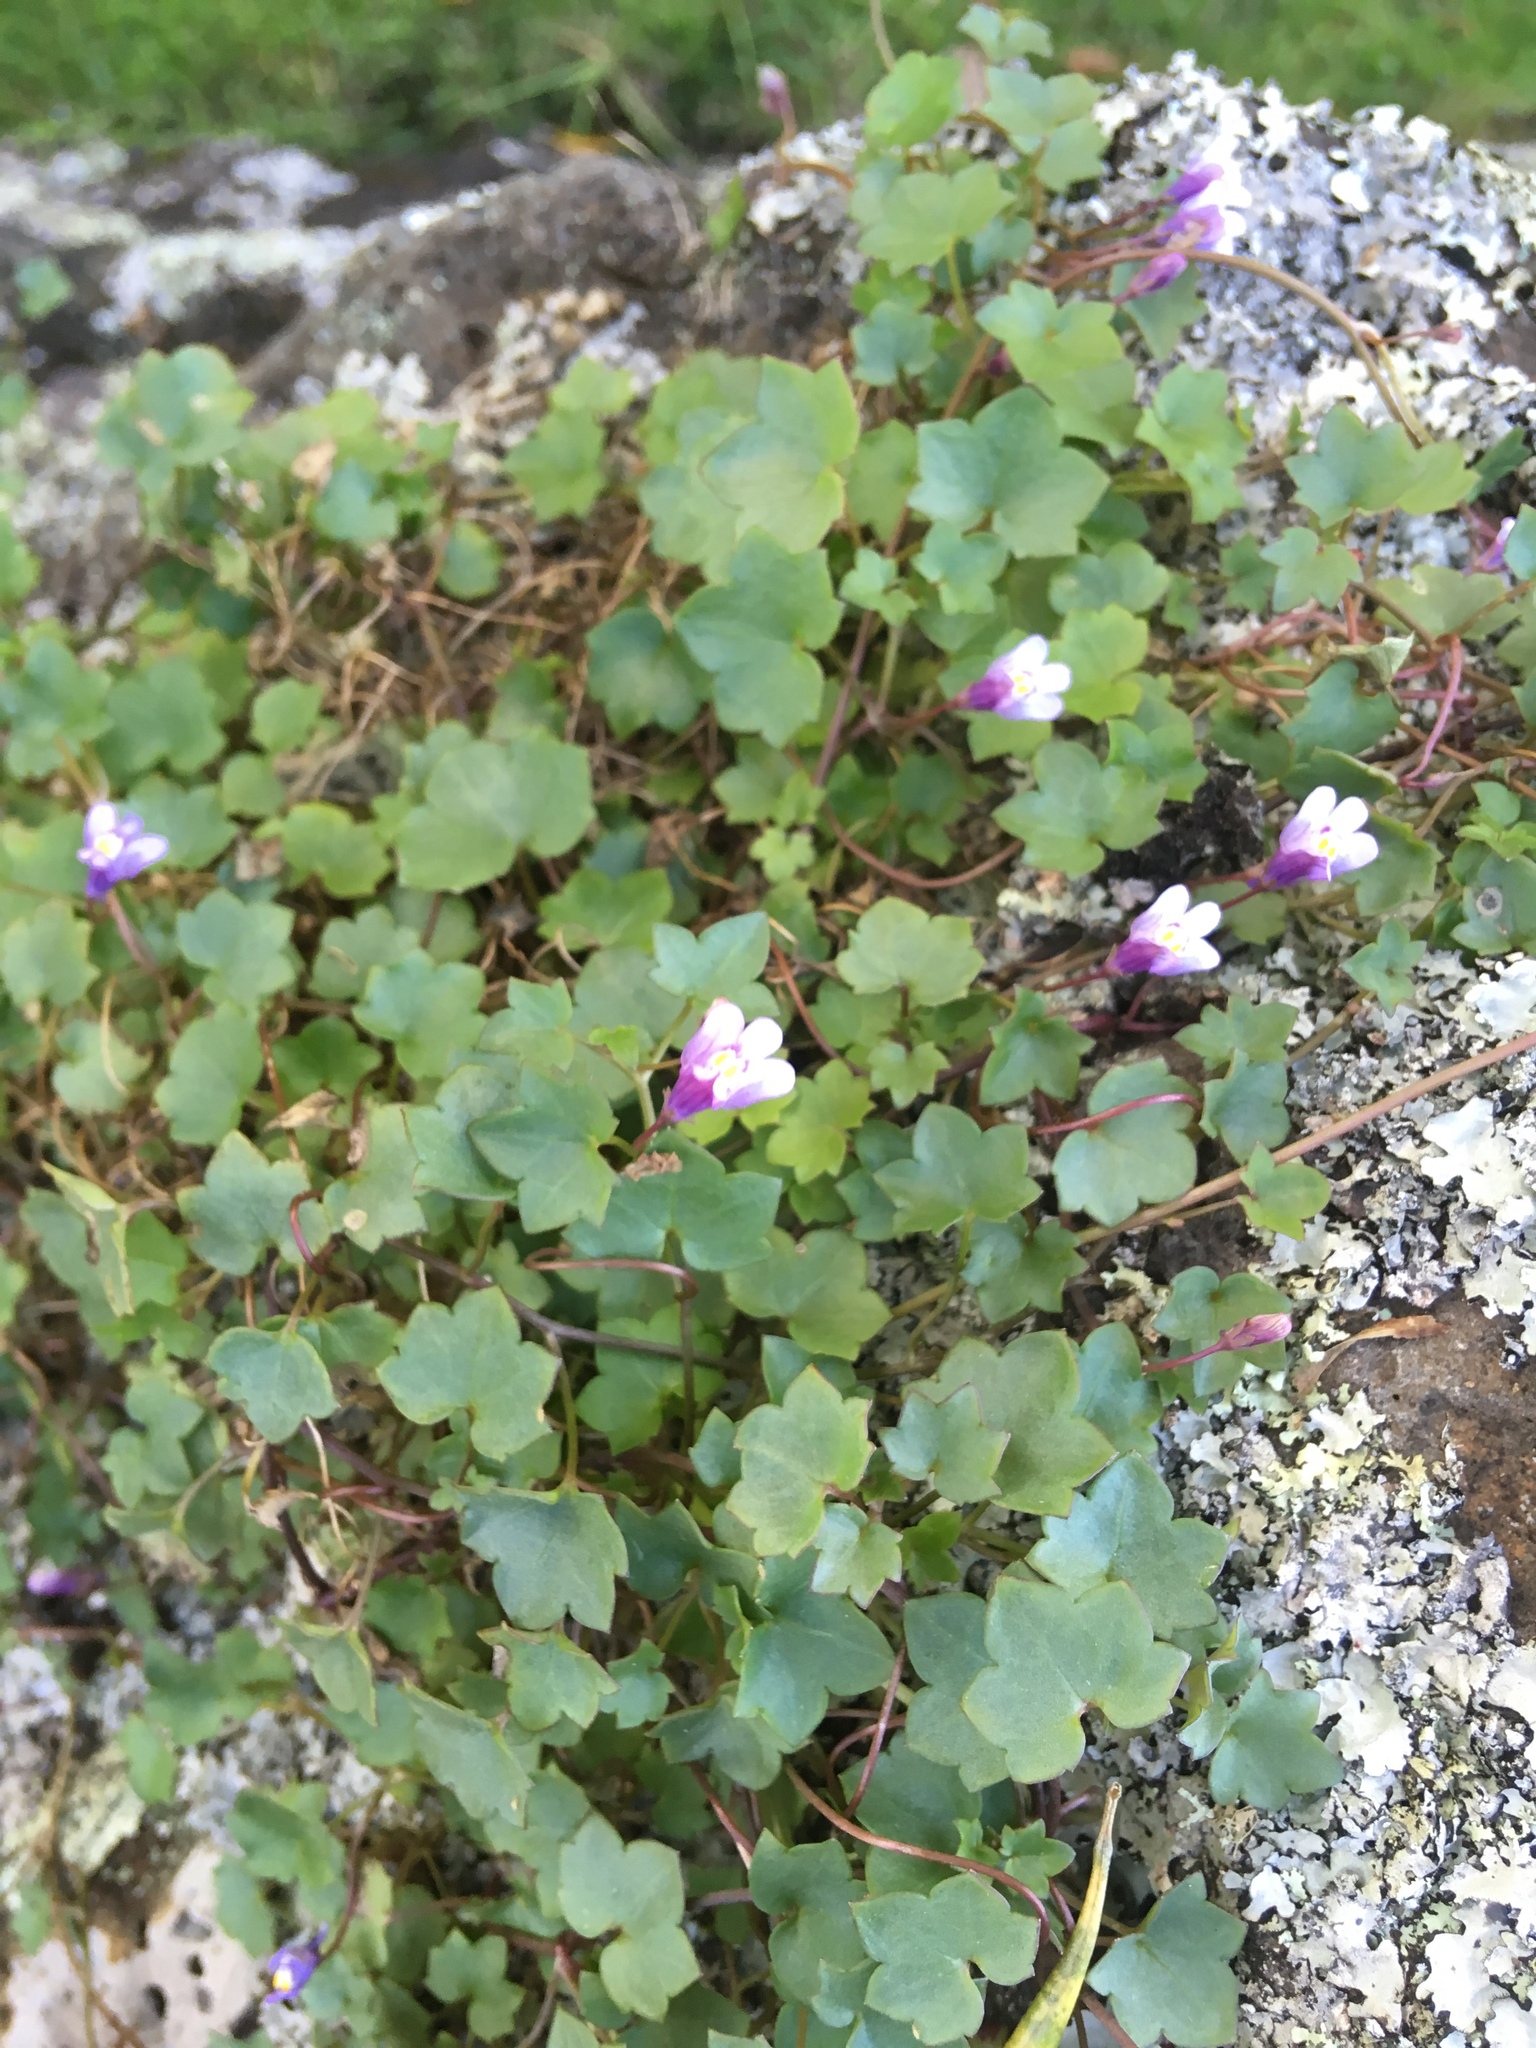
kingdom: Plantae
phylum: Tracheophyta
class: Magnoliopsida
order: Lamiales
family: Plantaginaceae
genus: Cymbalaria
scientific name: Cymbalaria muralis
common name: Ivy-leaved toadflax
